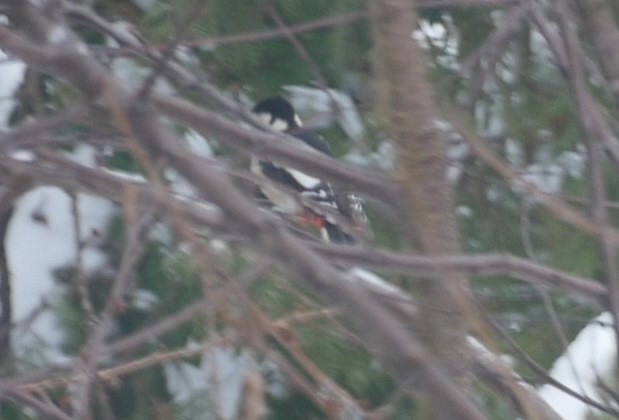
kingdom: Animalia
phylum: Chordata
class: Aves
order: Piciformes
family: Picidae
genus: Dendrocopos
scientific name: Dendrocopos major
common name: Great spotted woodpecker
